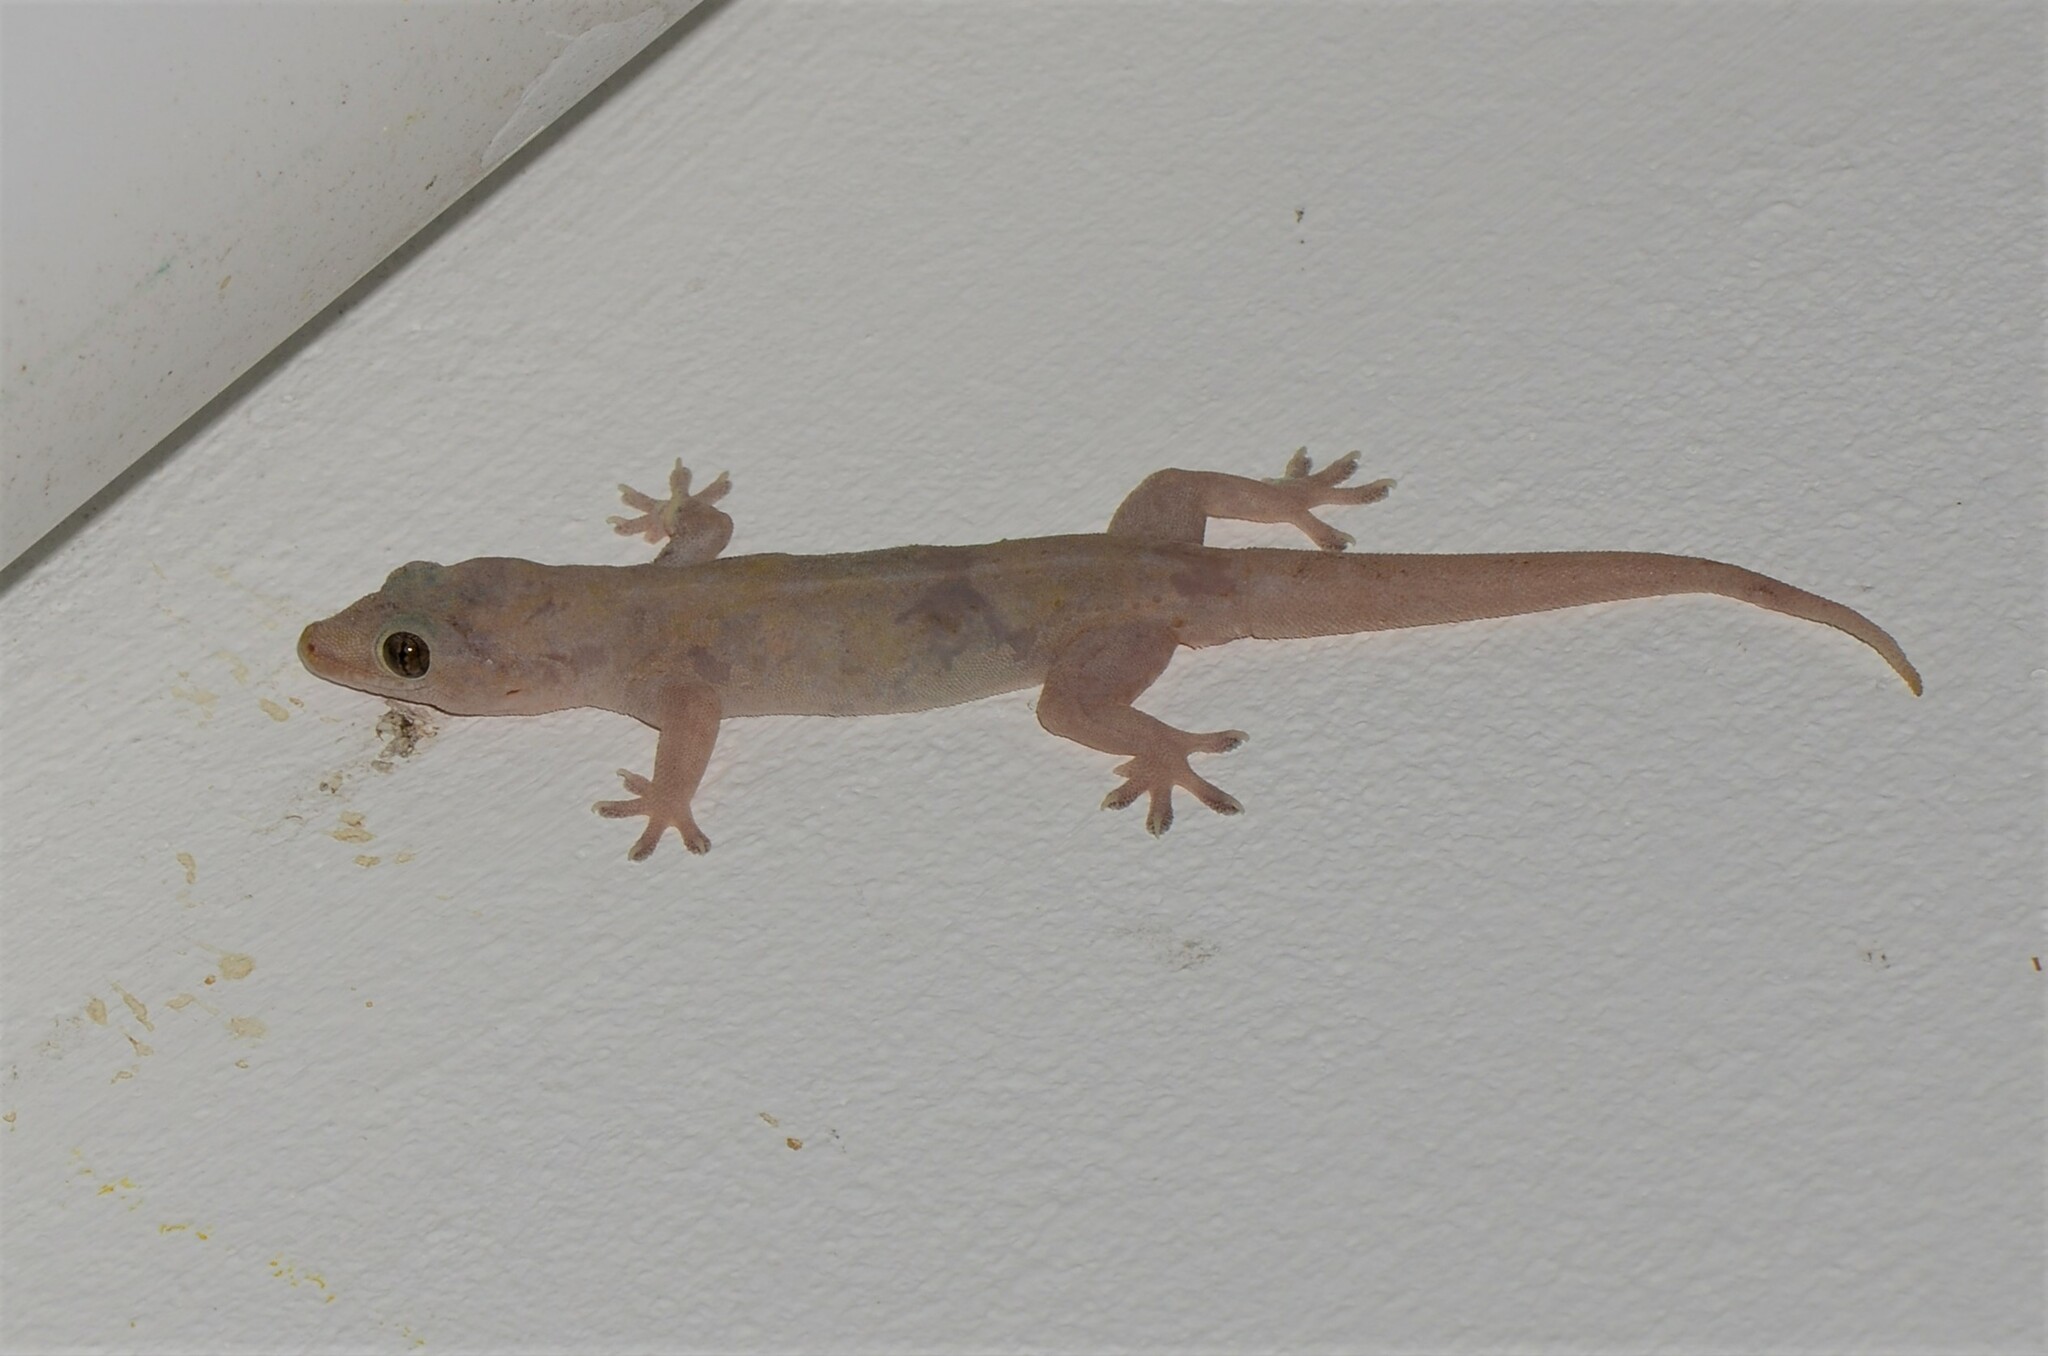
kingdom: Animalia
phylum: Chordata
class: Squamata
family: Gekkonidae
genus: Hemidactylus
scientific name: Hemidactylus frenatus
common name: Common house gecko
